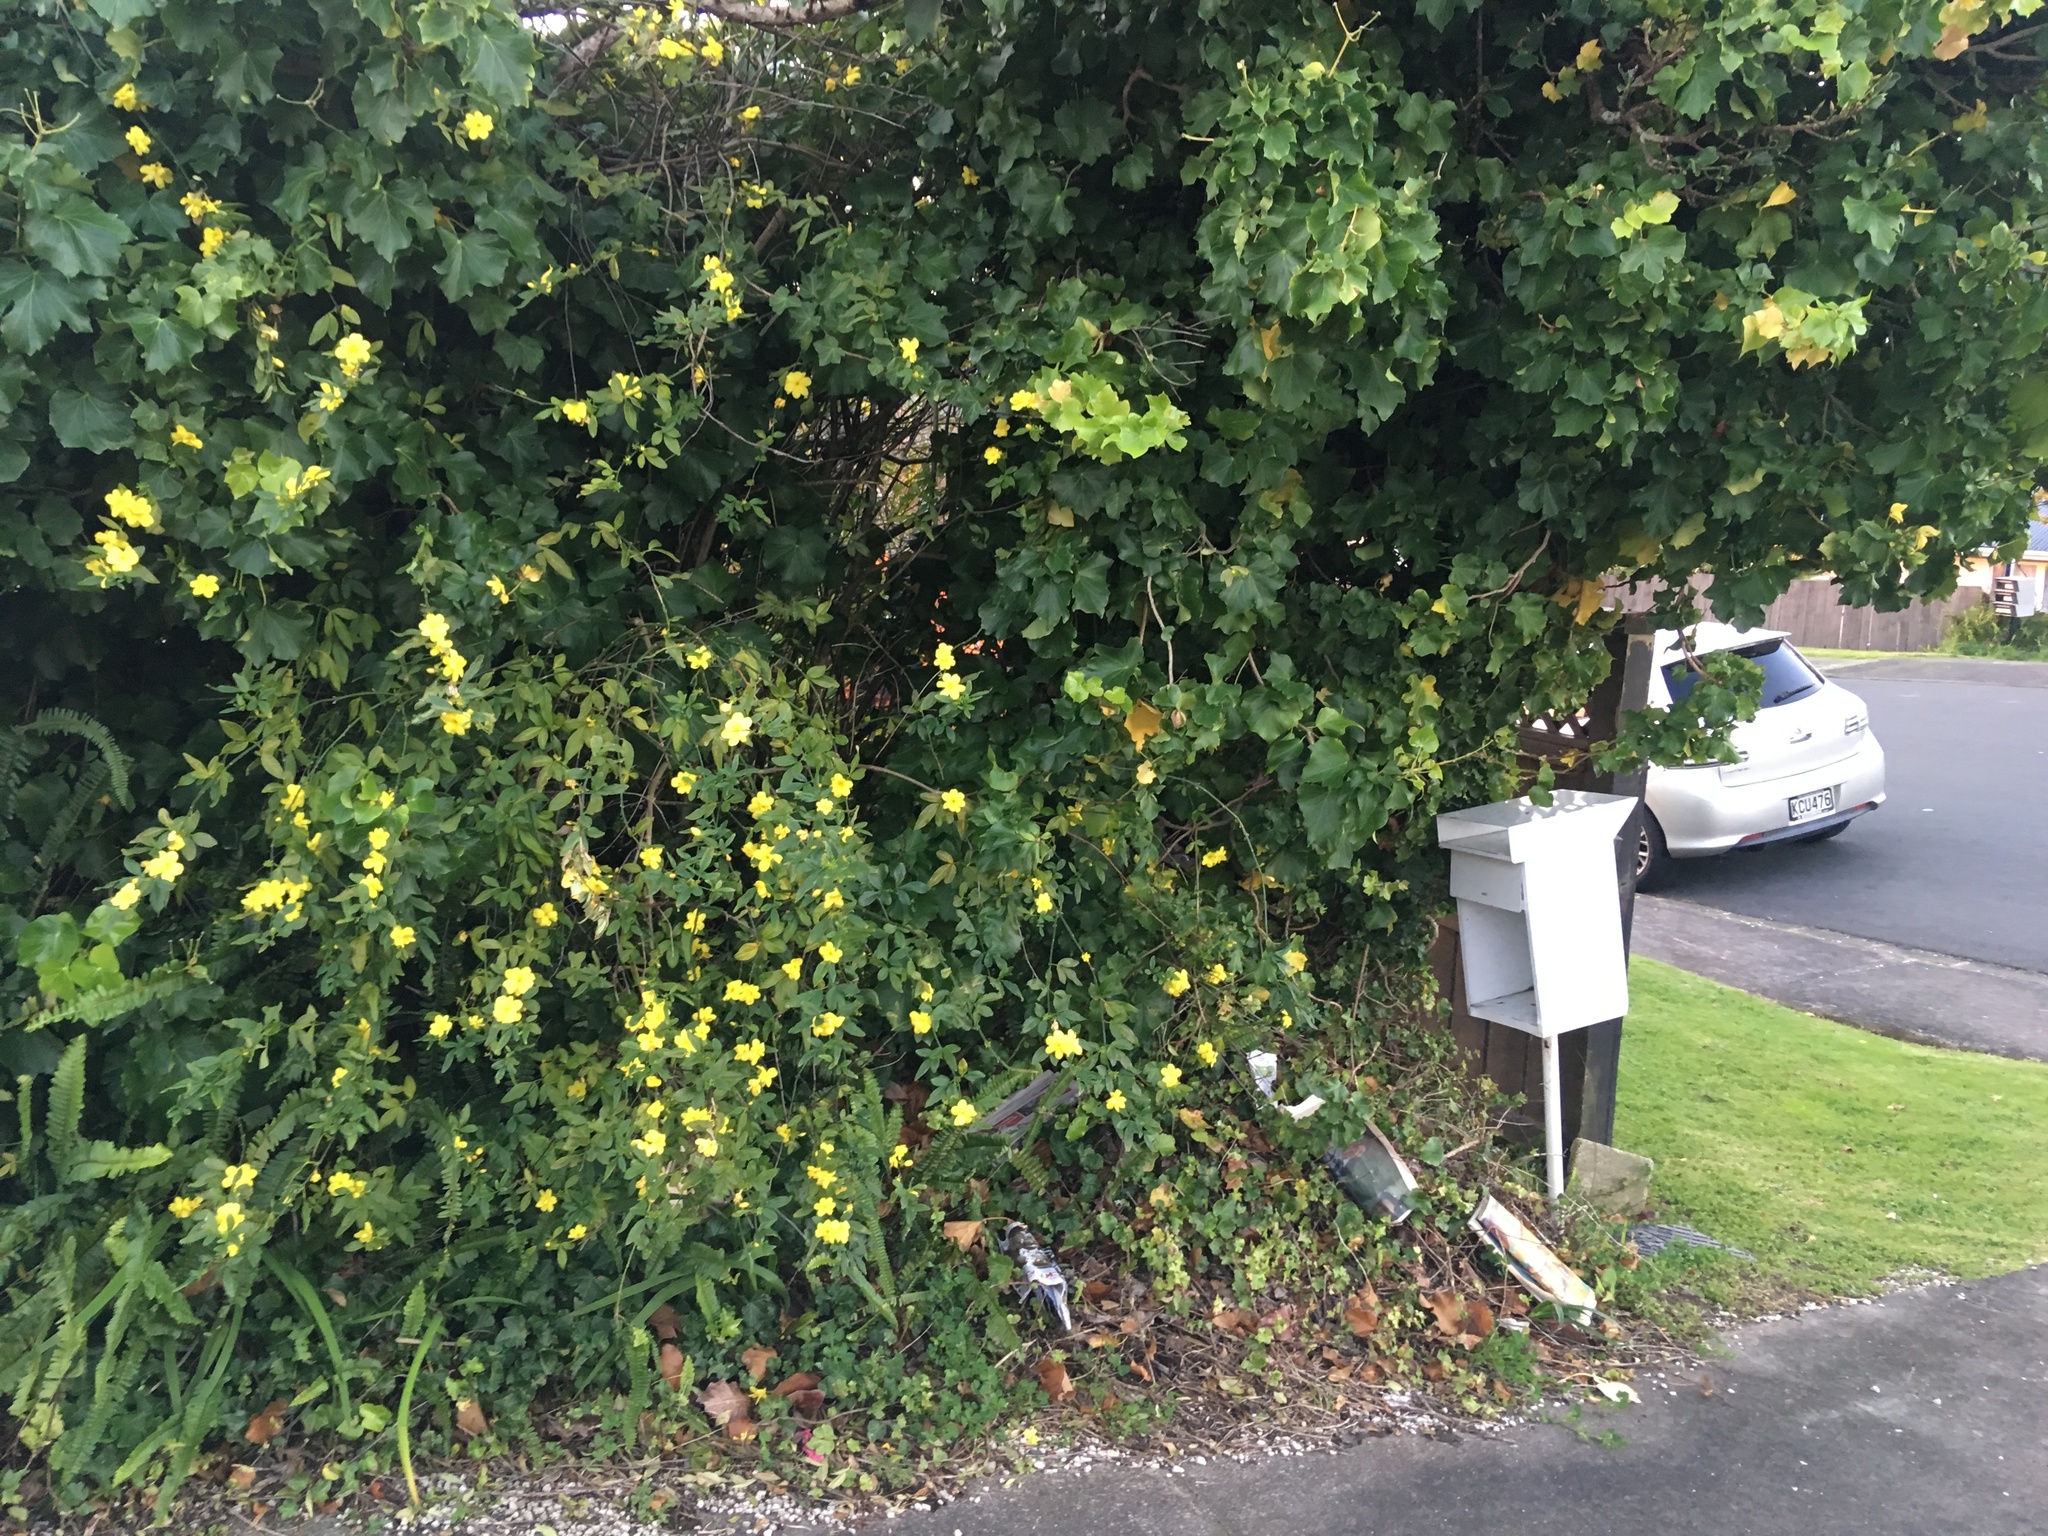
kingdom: Plantae
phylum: Tracheophyta
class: Magnoliopsida
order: Apiales
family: Araliaceae
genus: Hedera
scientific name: Hedera helix
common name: Ivy
